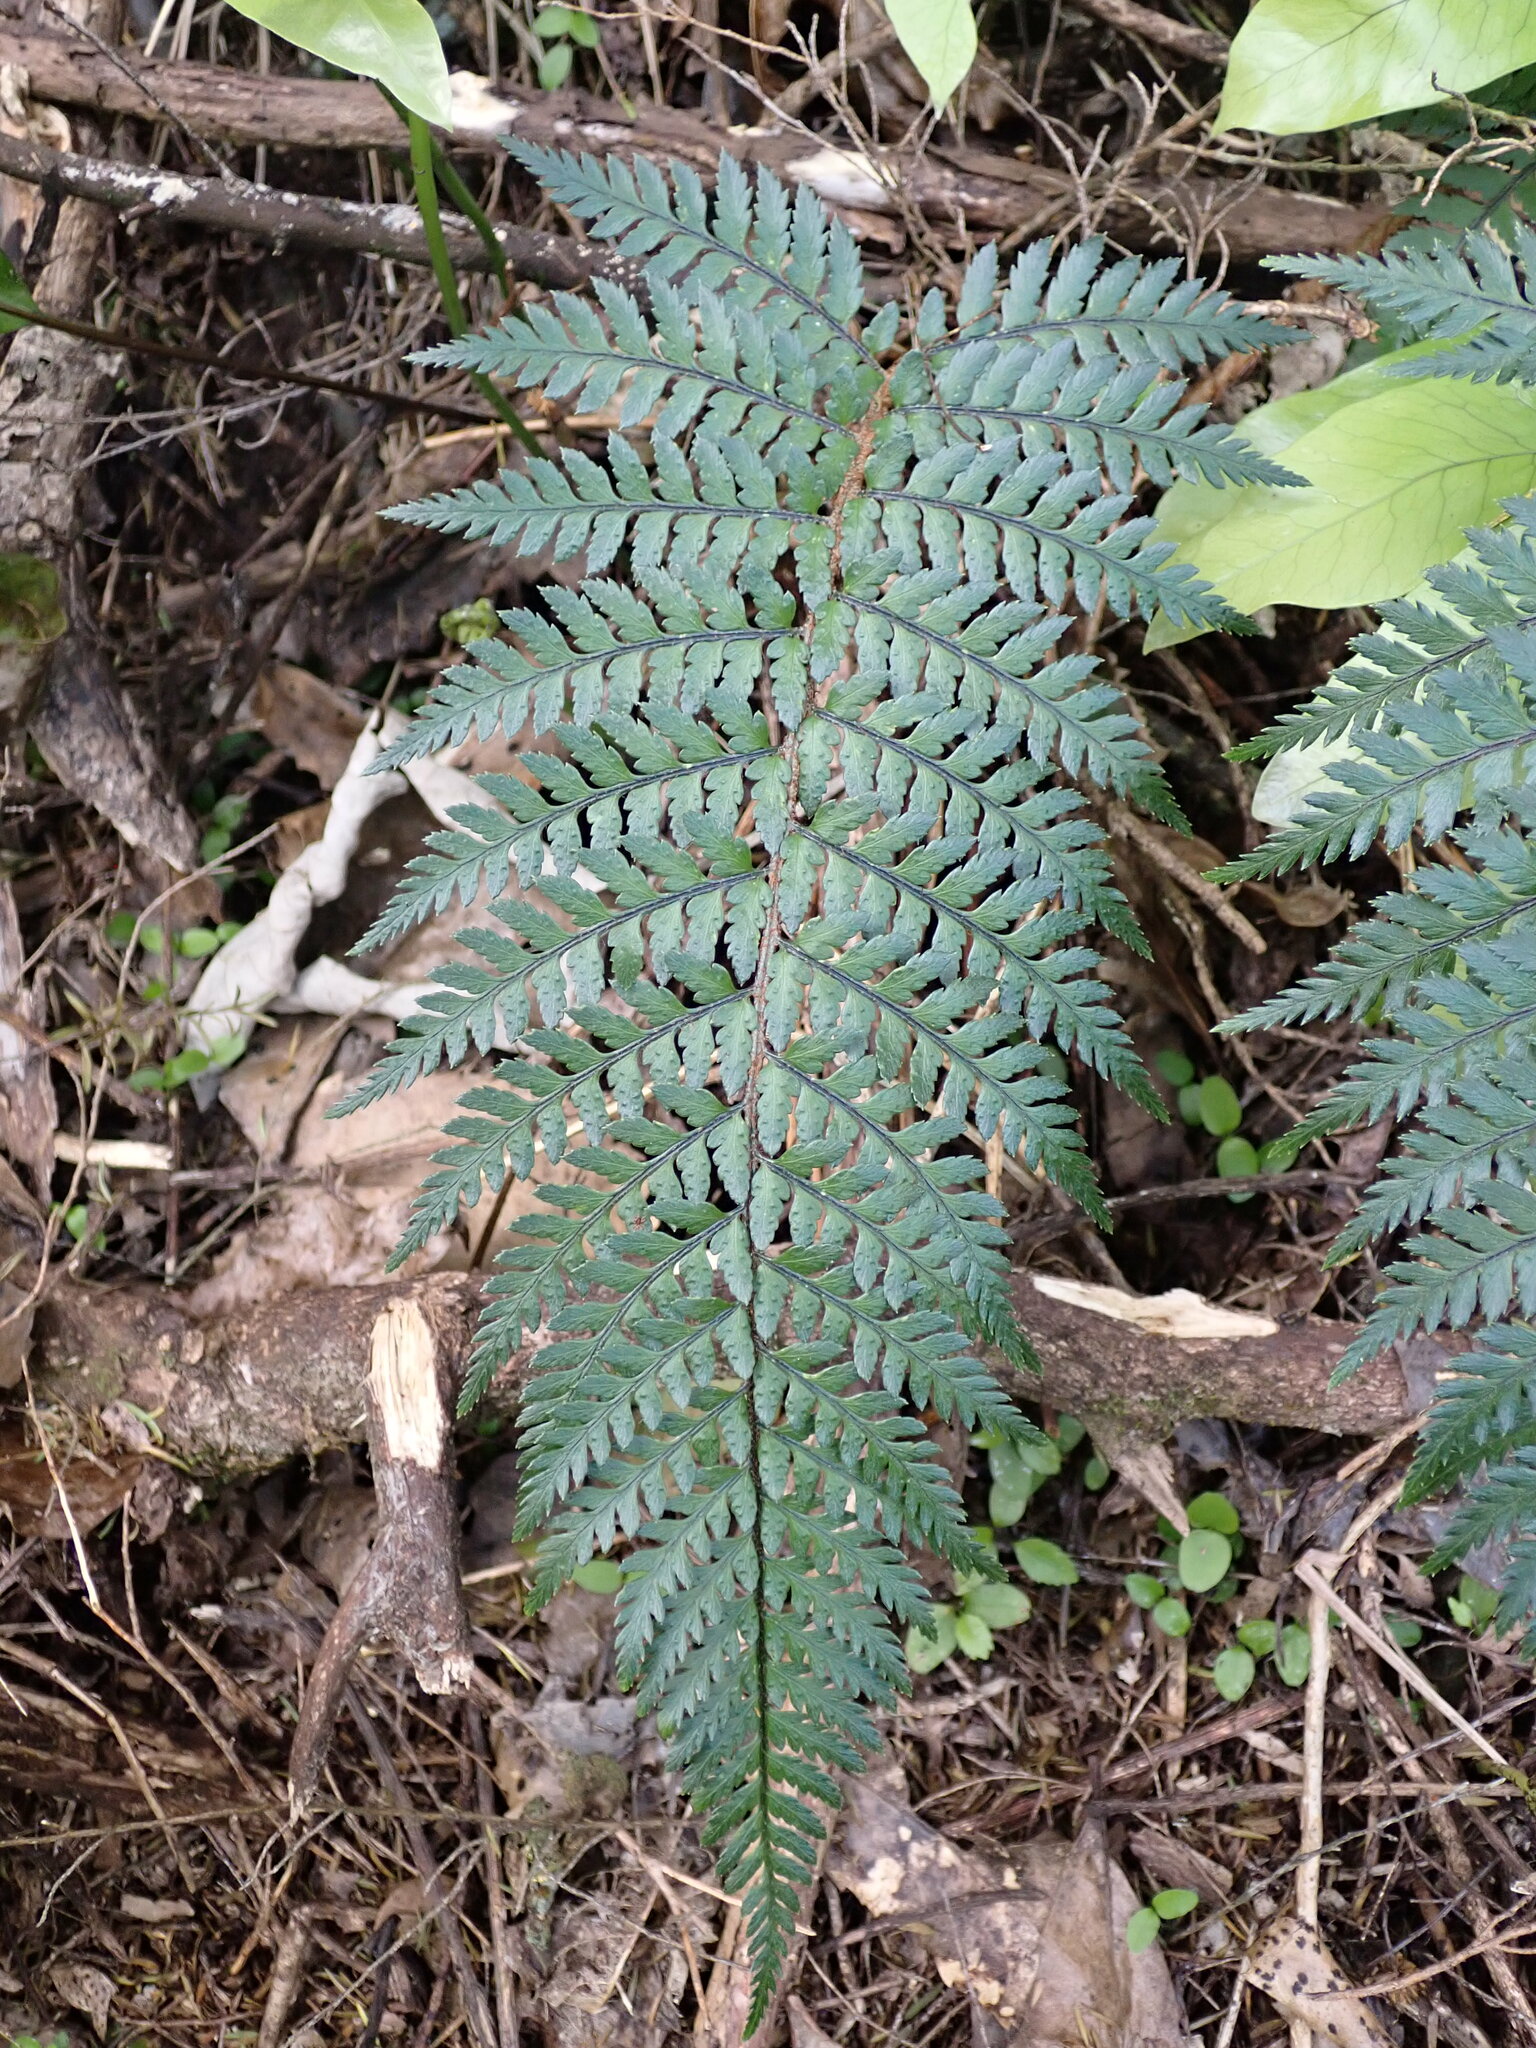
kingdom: Plantae
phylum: Tracheophyta
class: Polypodiopsida
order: Polypodiales
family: Dryopteridaceae
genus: Polystichum
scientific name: Polystichum neozelandicum
